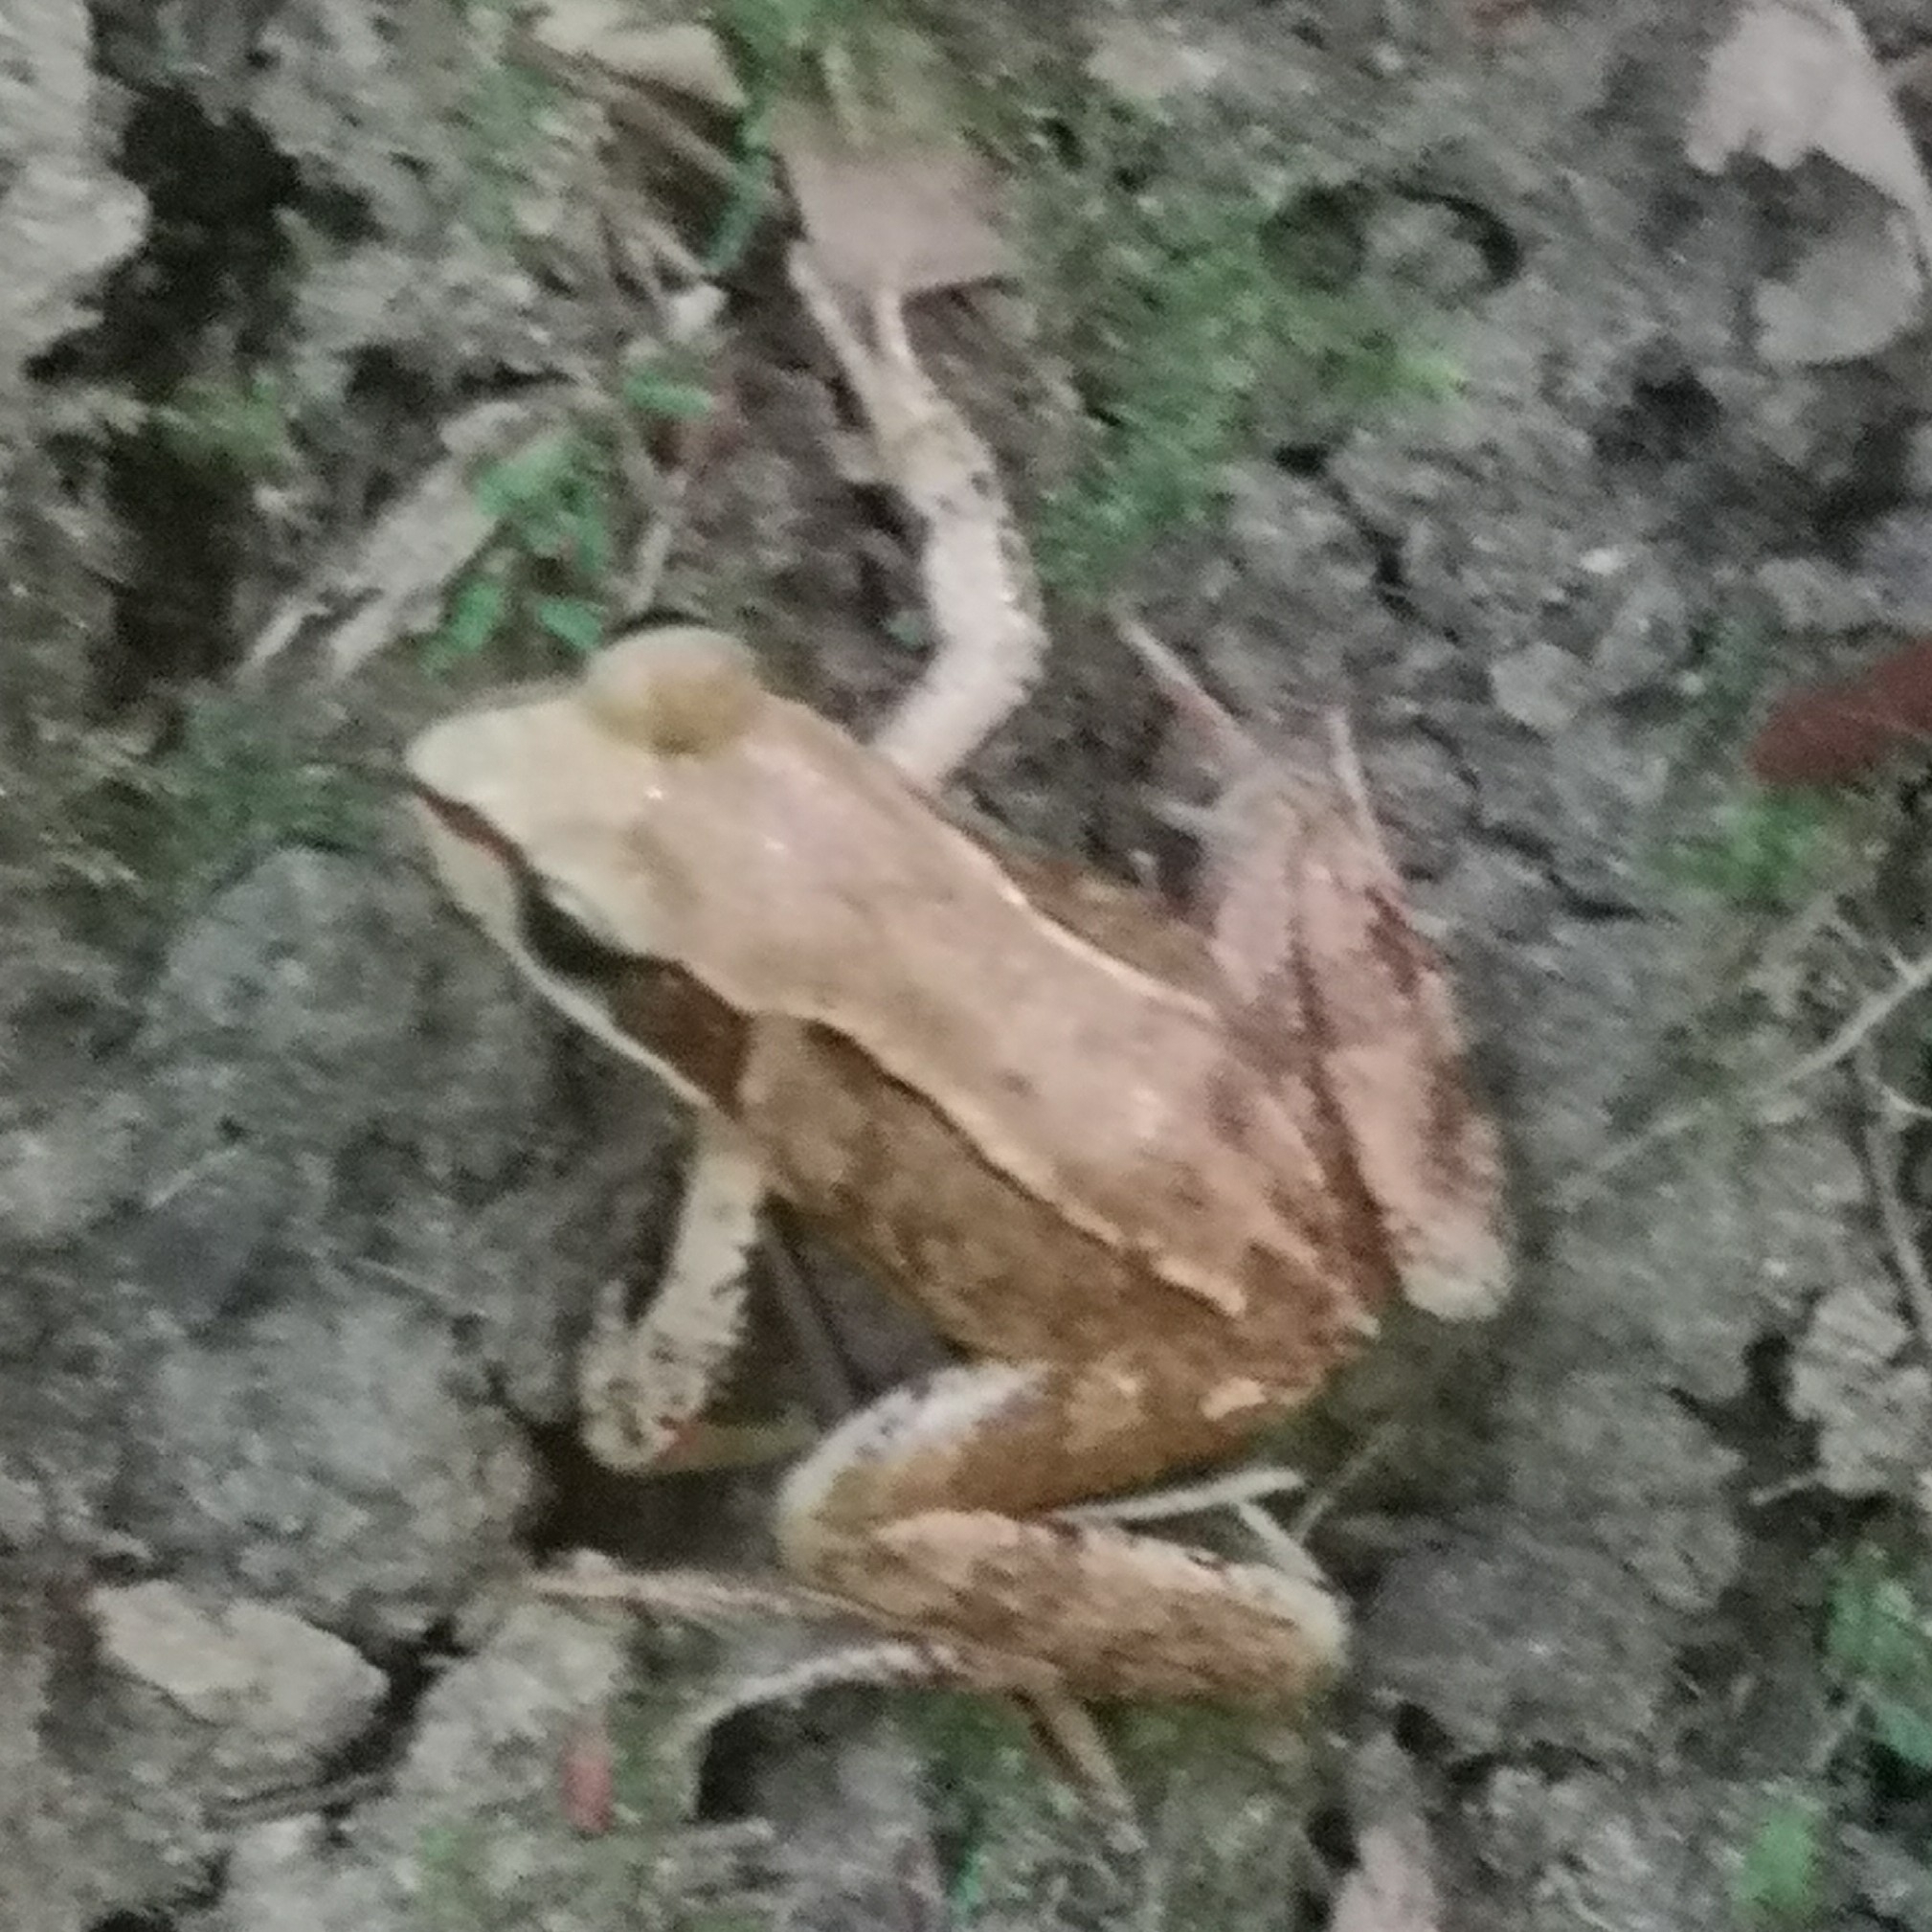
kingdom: Animalia
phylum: Chordata
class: Amphibia
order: Anura
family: Ranidae
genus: Rana
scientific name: Rana temporaria
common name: Common frog
